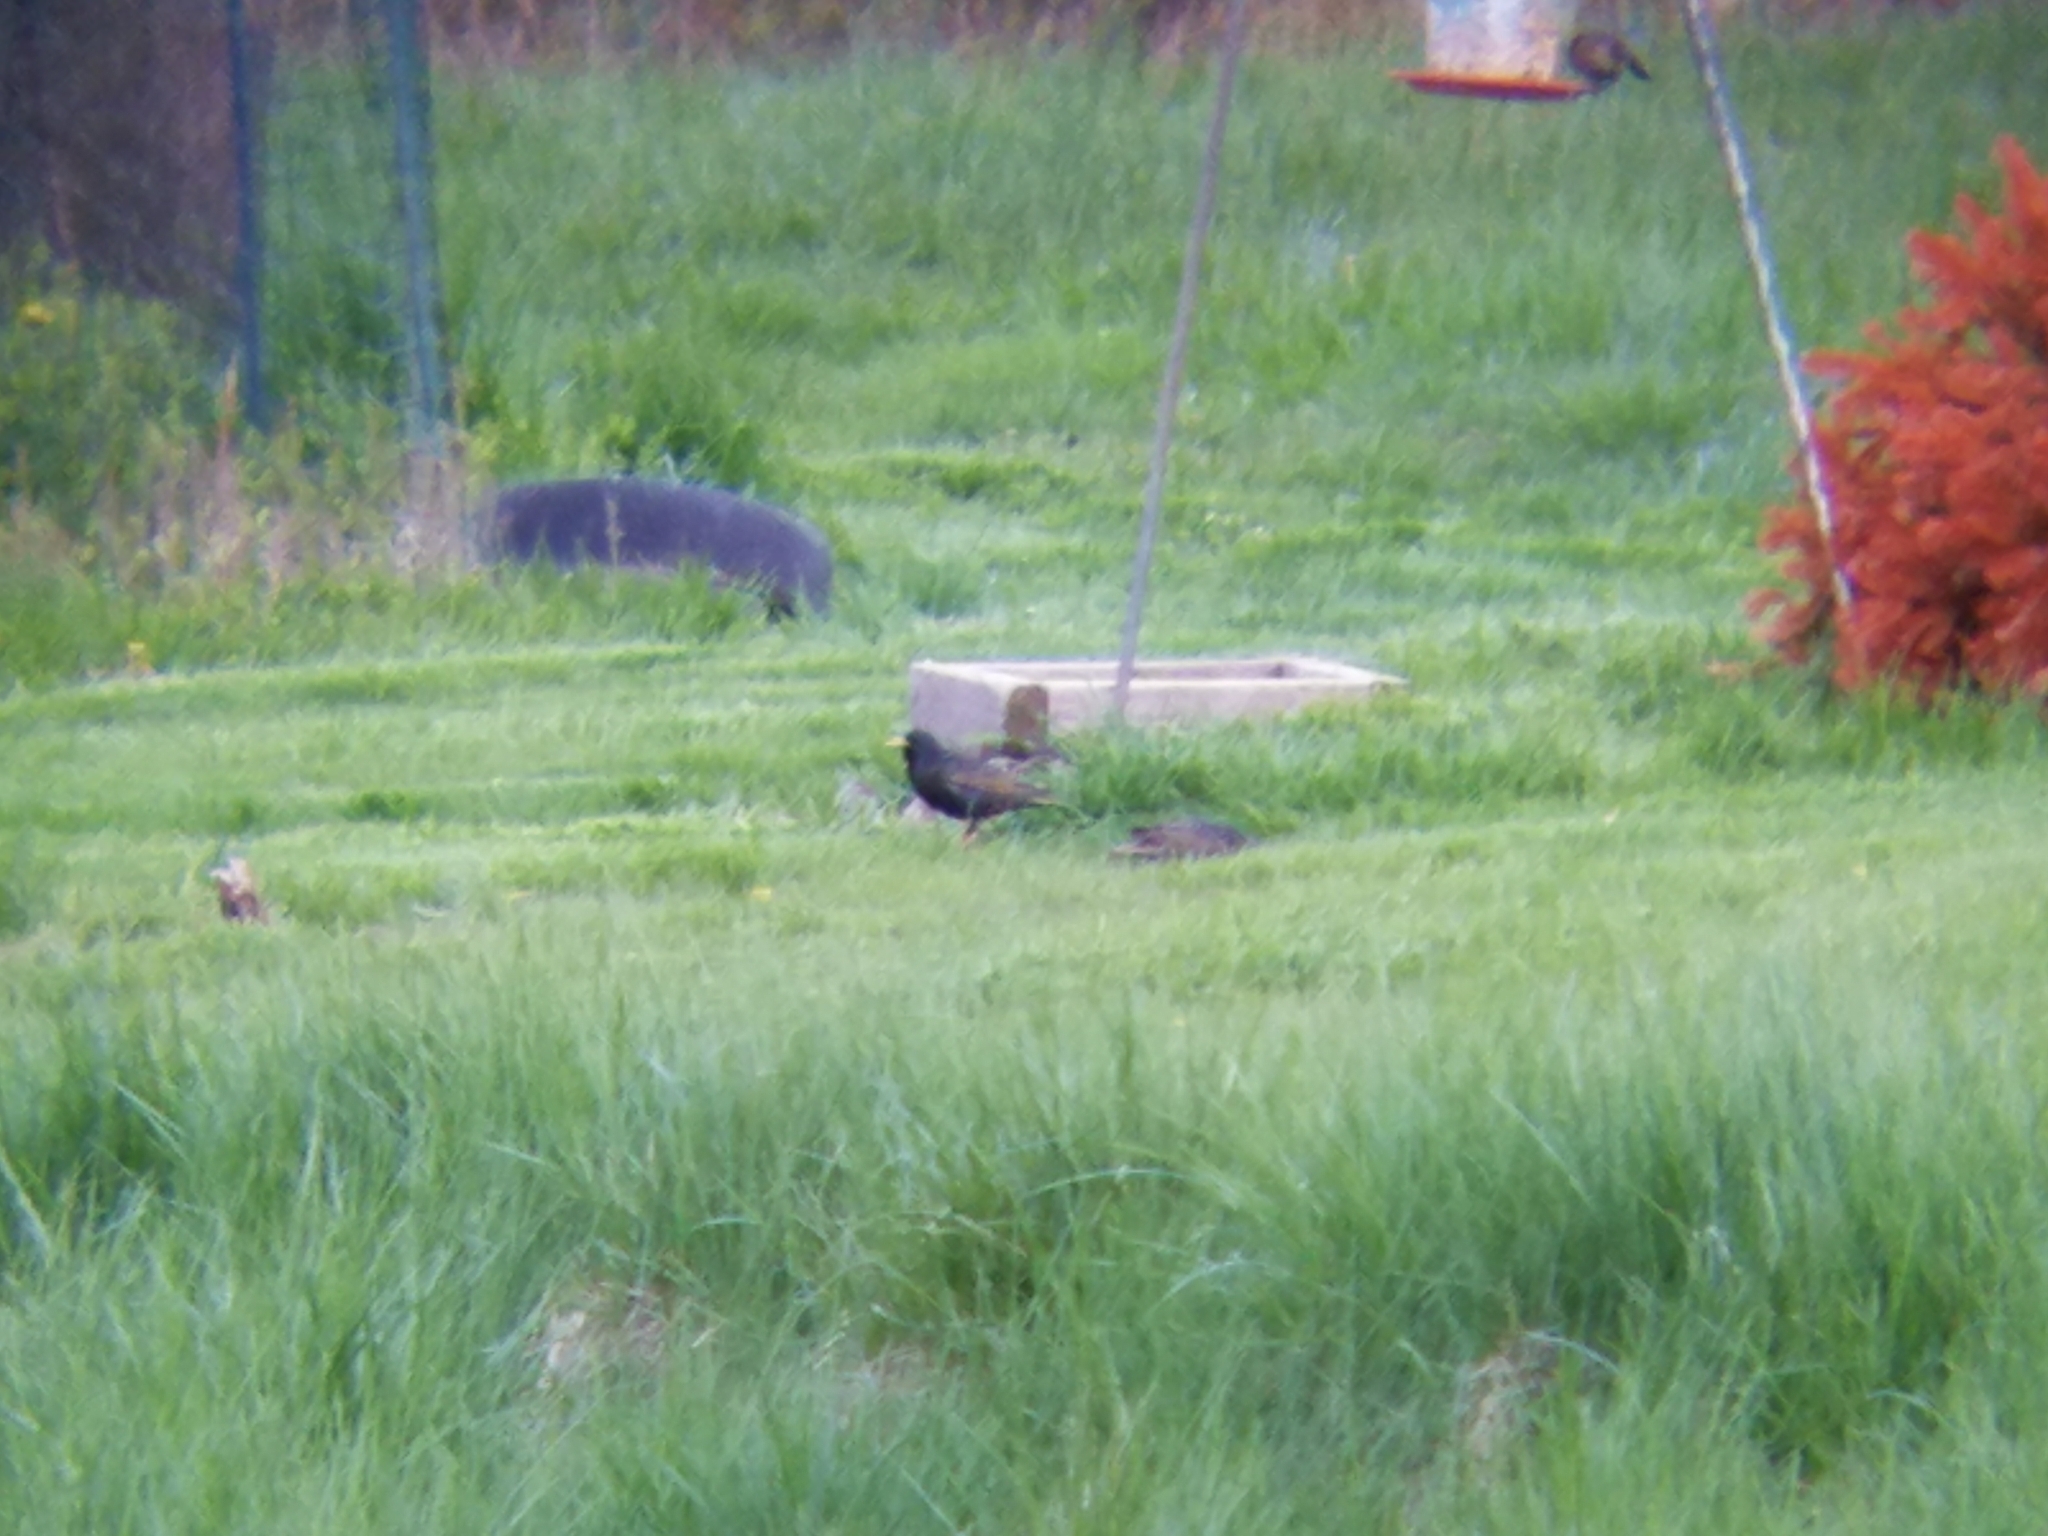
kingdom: Animalia
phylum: Chordata
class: Aves
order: Passeriformes
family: Sturnidae
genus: Sturnus
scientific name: Sturnus vulgaris
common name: Common starling
